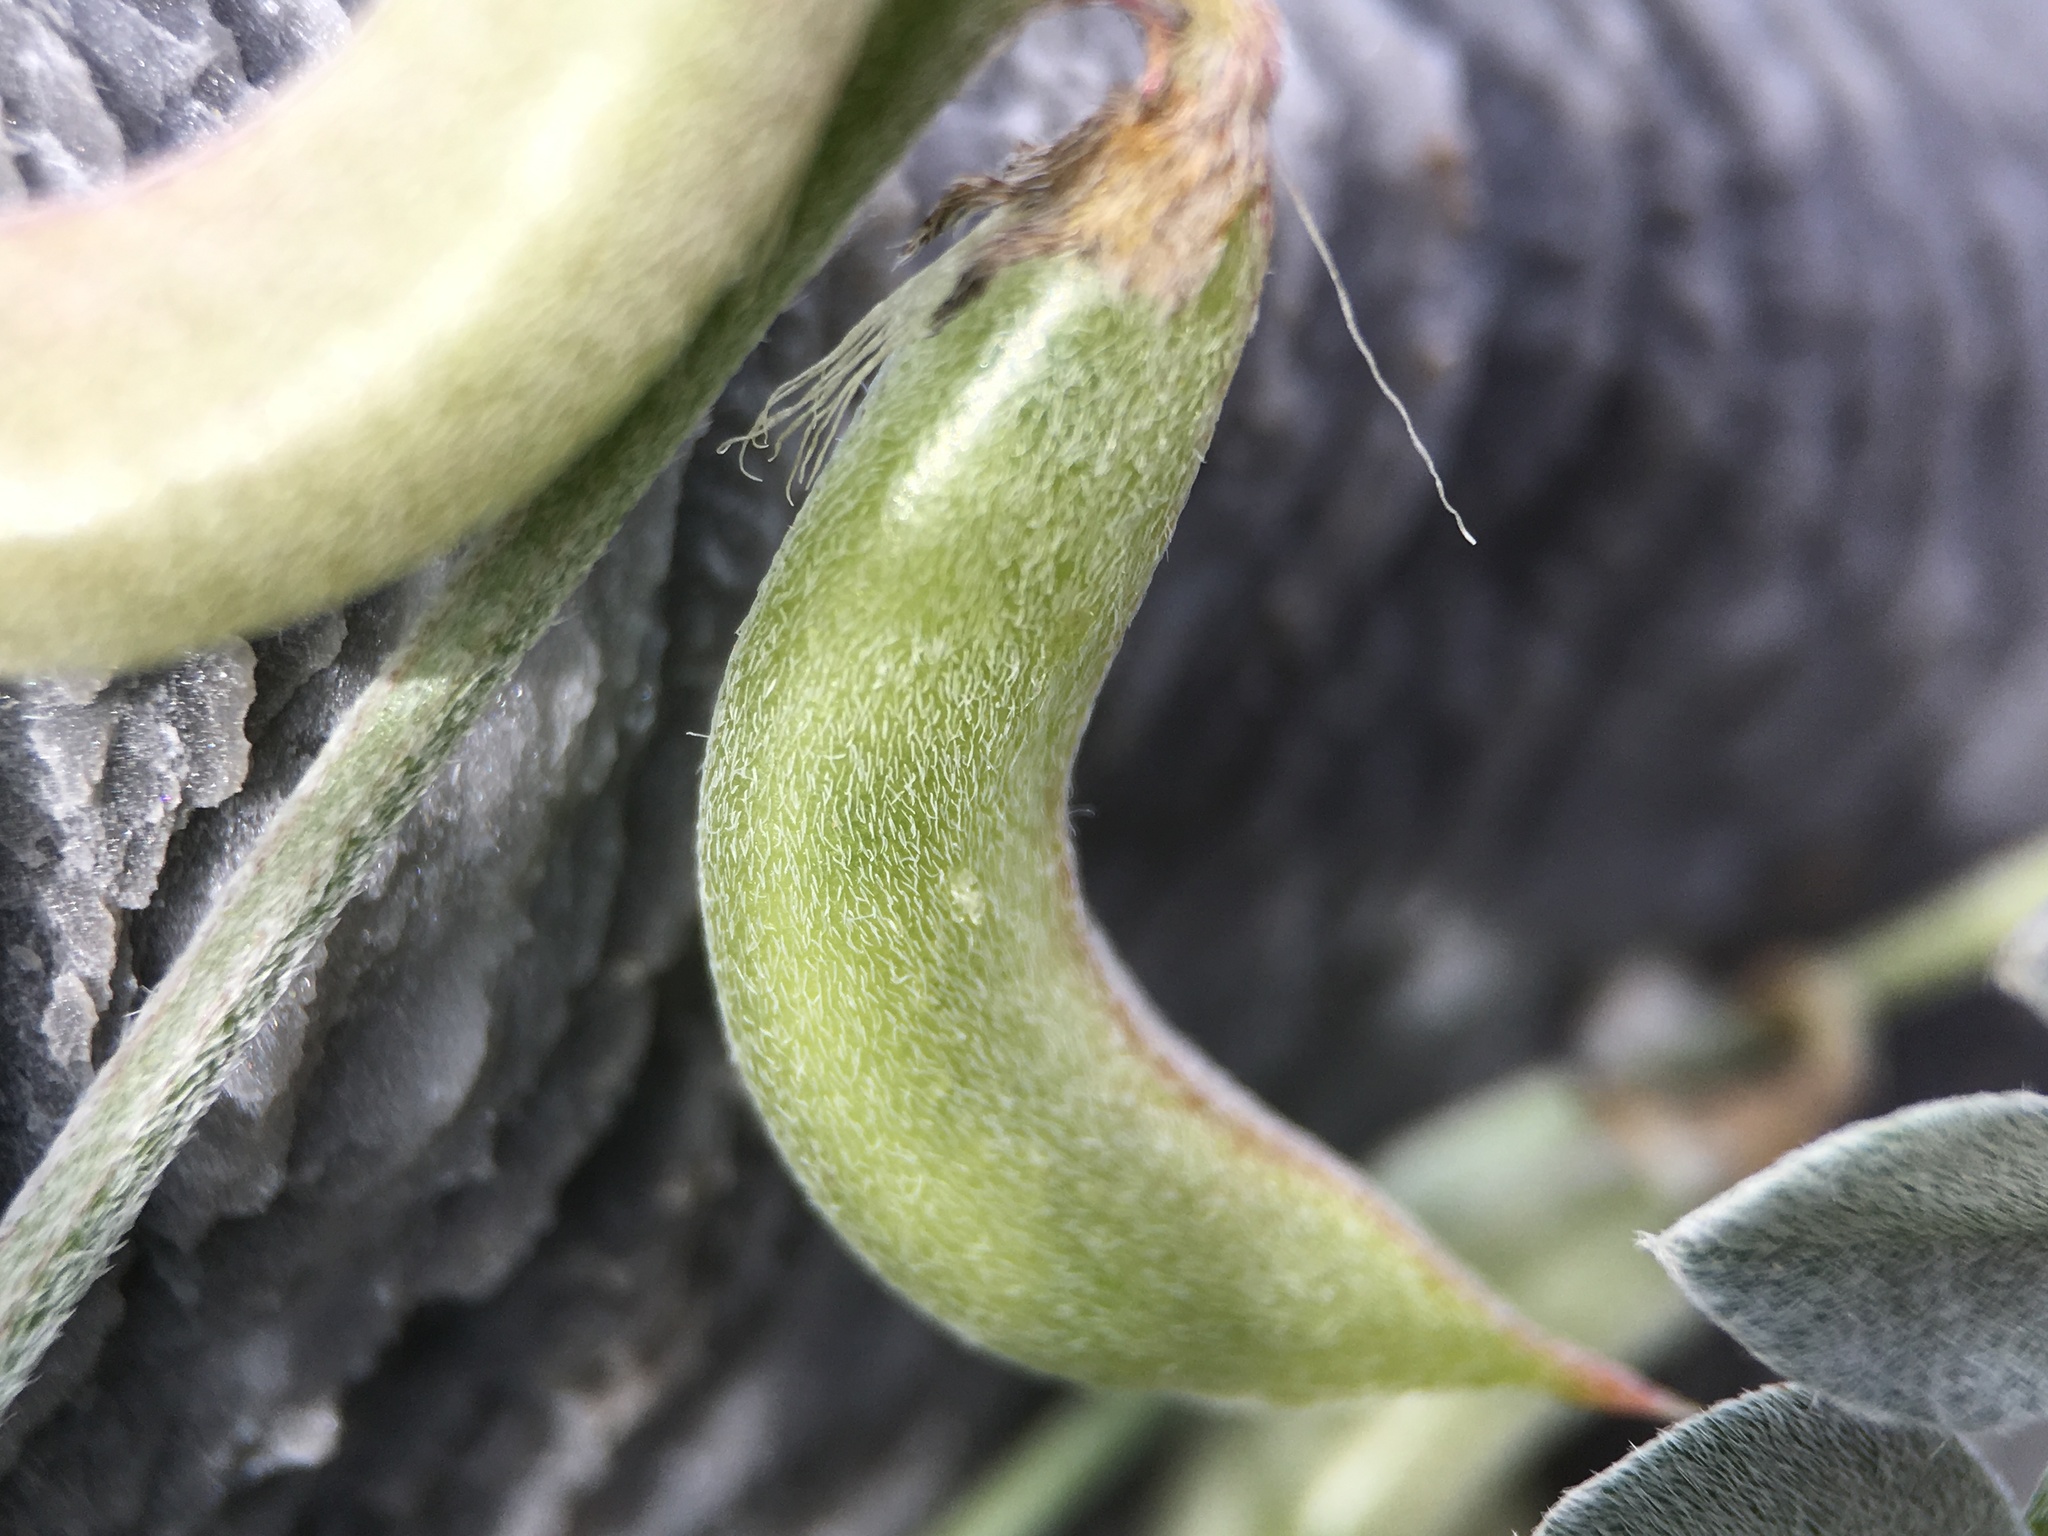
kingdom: Plantae
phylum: Tracheophyta
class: Magnoliopsida
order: Fabales
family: Fabaceae
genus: Astragalus
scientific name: Astragalus mohavensis
